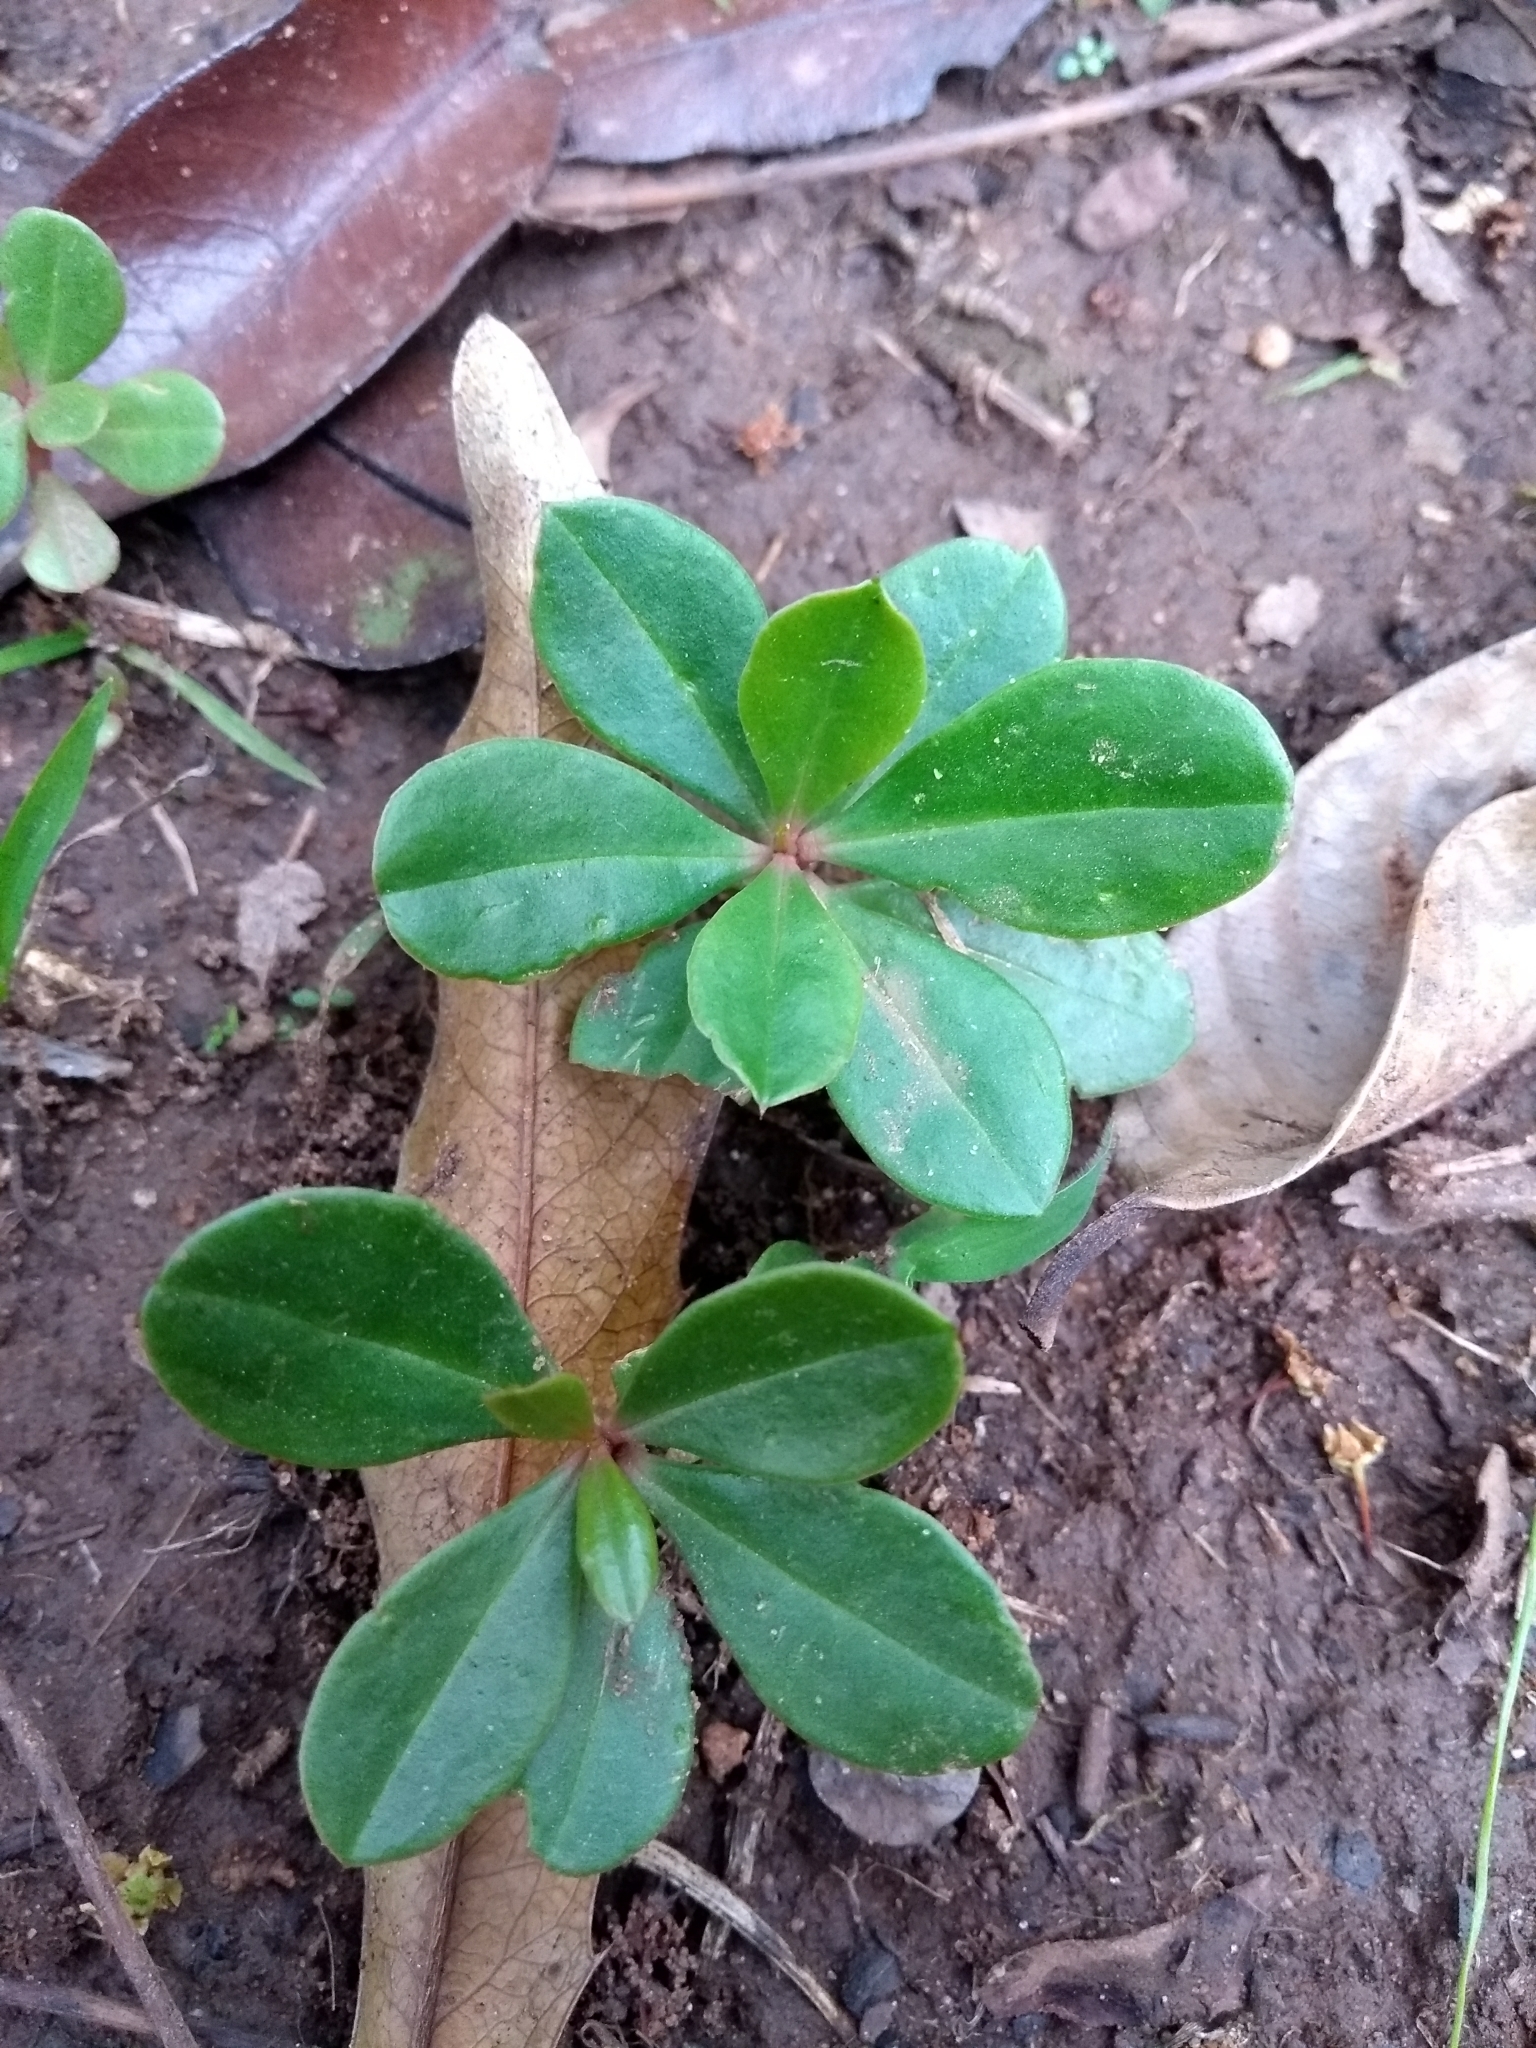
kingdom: Plantae
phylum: Tracheophyta
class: Magnoliopsida
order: Caryophyllales
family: Talinaceae
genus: Talinum
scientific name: Talinum paniculatum
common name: Jewels of opar
